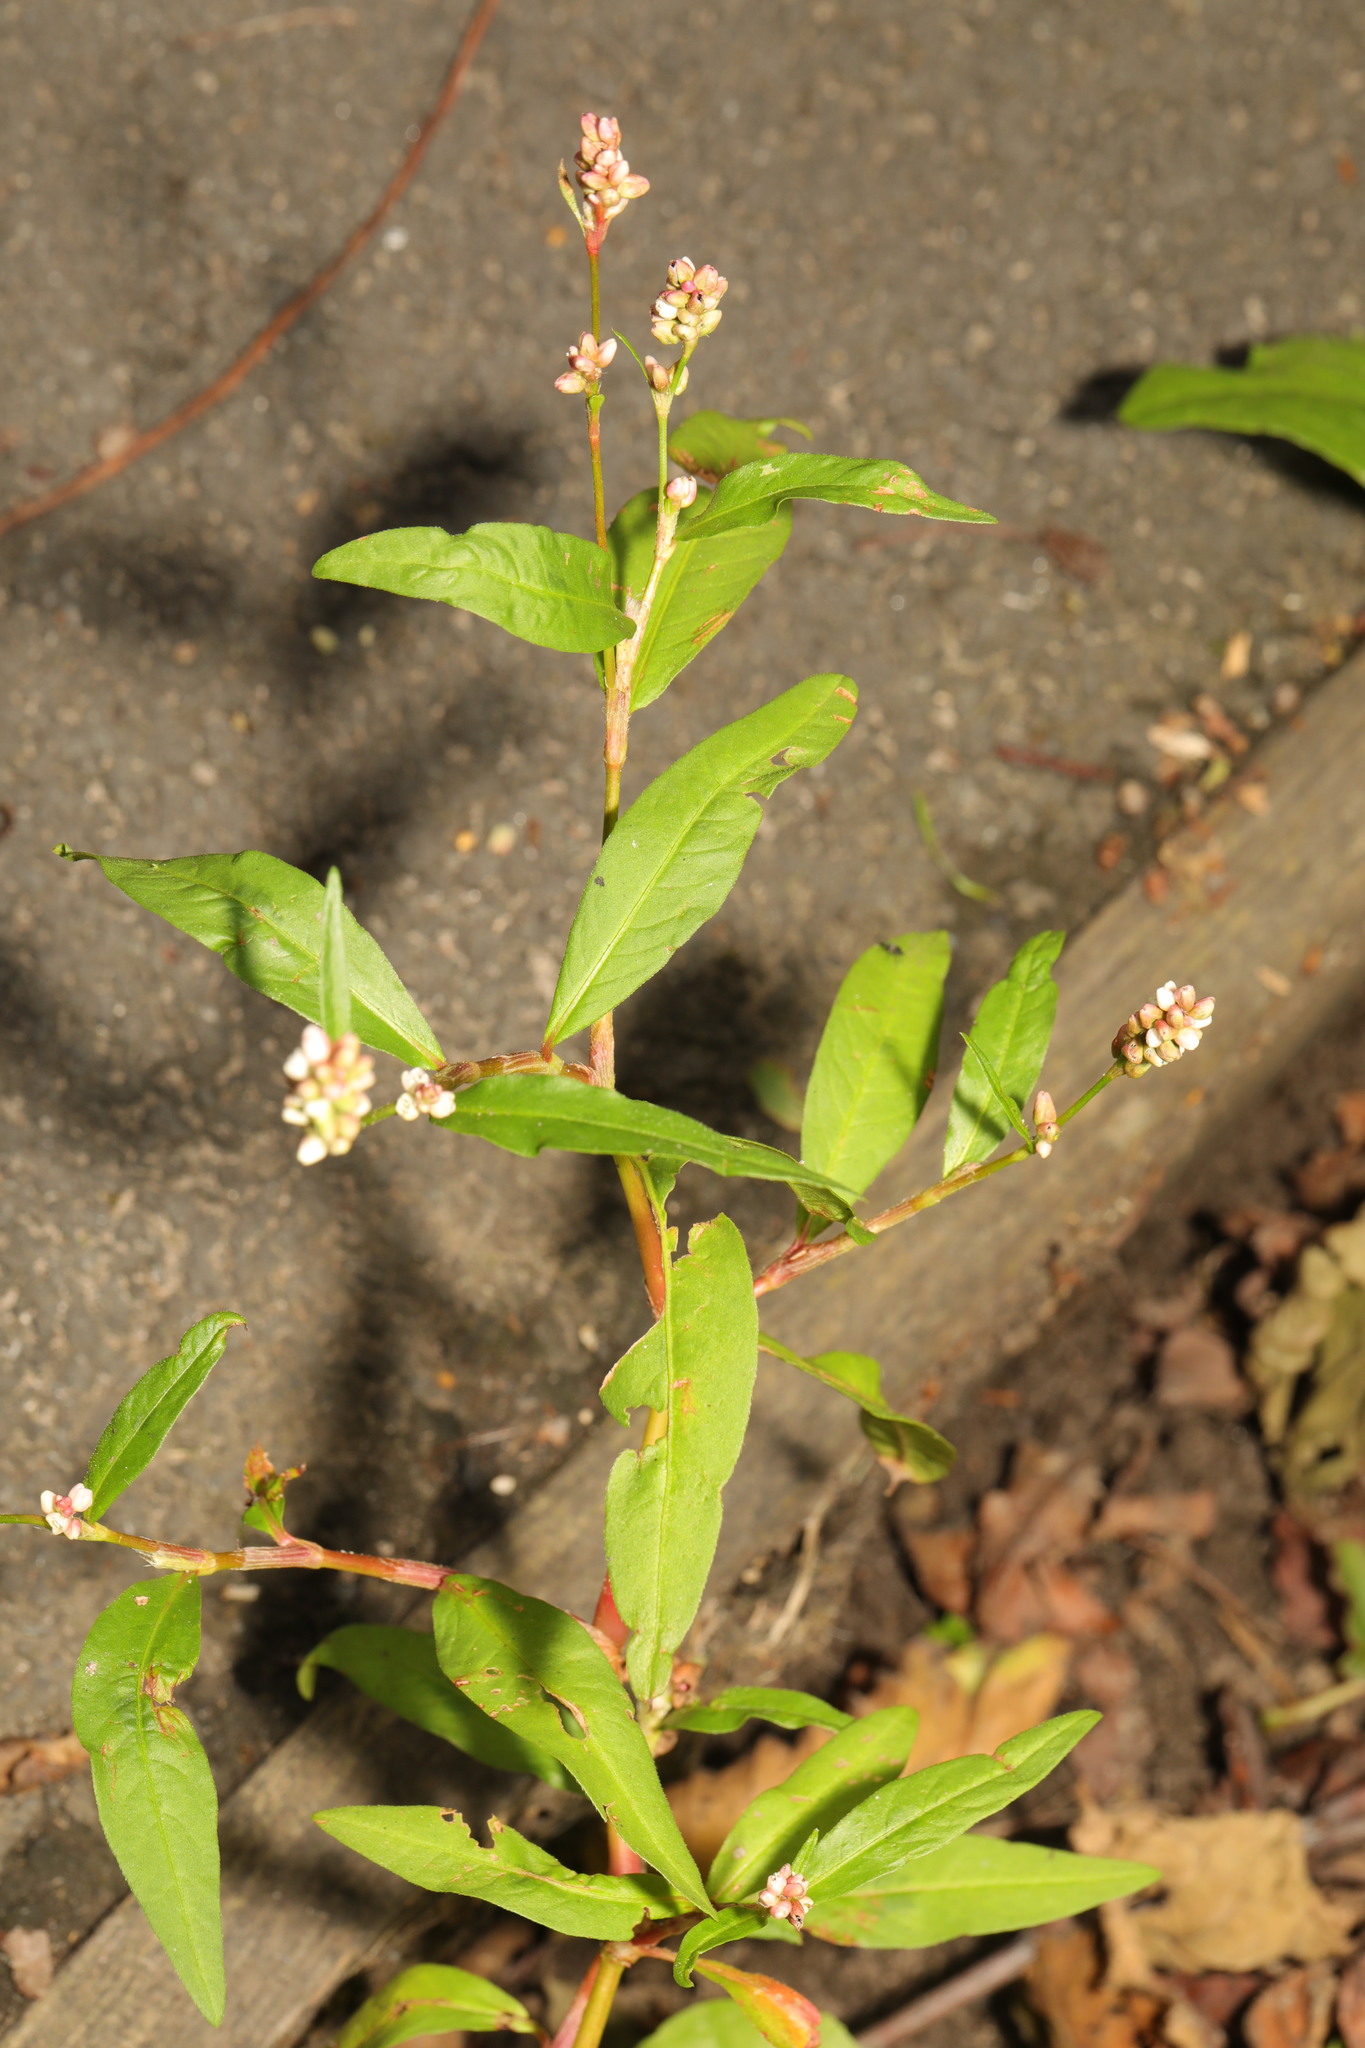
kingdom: Plantae
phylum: Tracheophyta
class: Magnoliopsida
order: Caryophyllales
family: Polygonaceae
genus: Persicaria
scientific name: Persicaria maculosa
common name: Redshank
